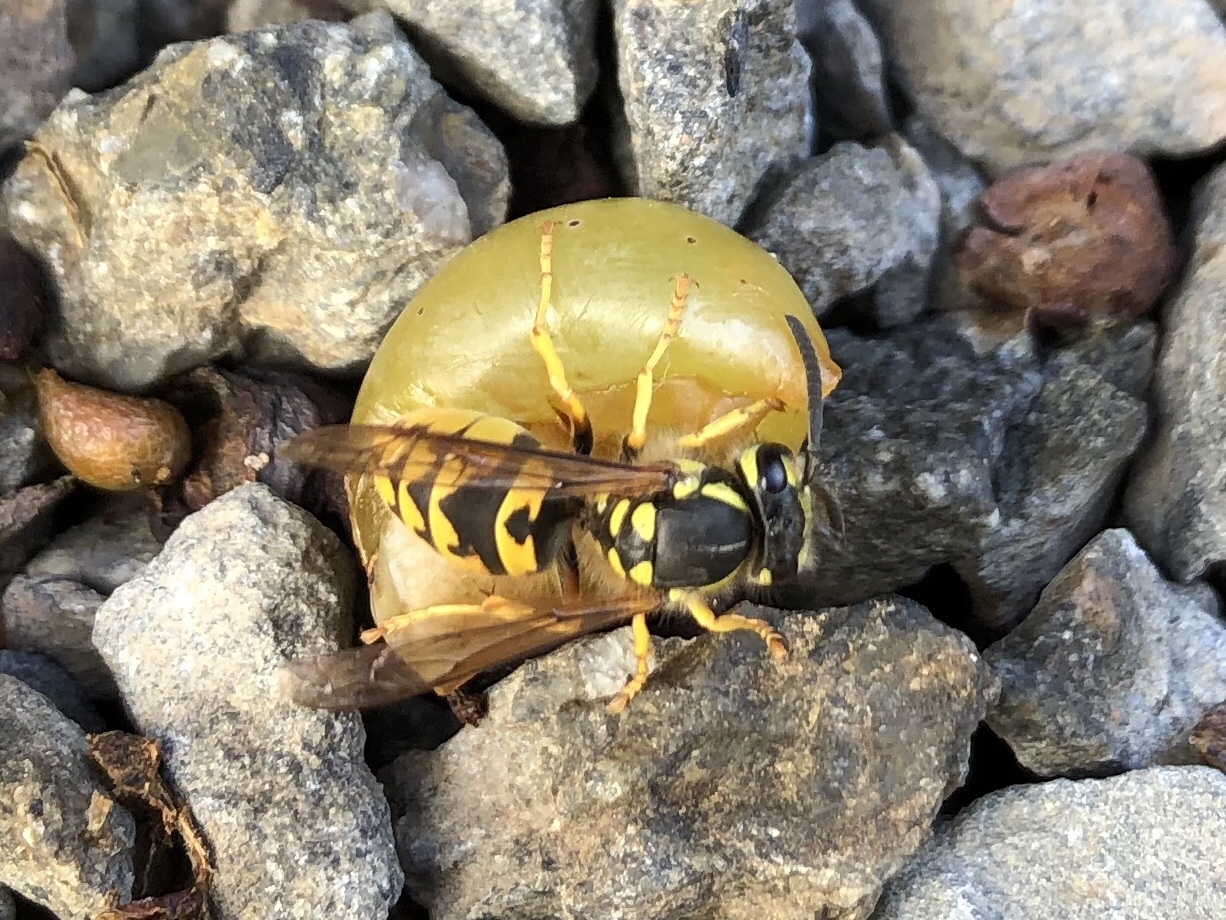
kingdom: Animalia
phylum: Arthropoda
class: Insecta
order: Hymenoptera
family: Vespidae
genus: Vespula
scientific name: Vespula germanica
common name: German wasp
